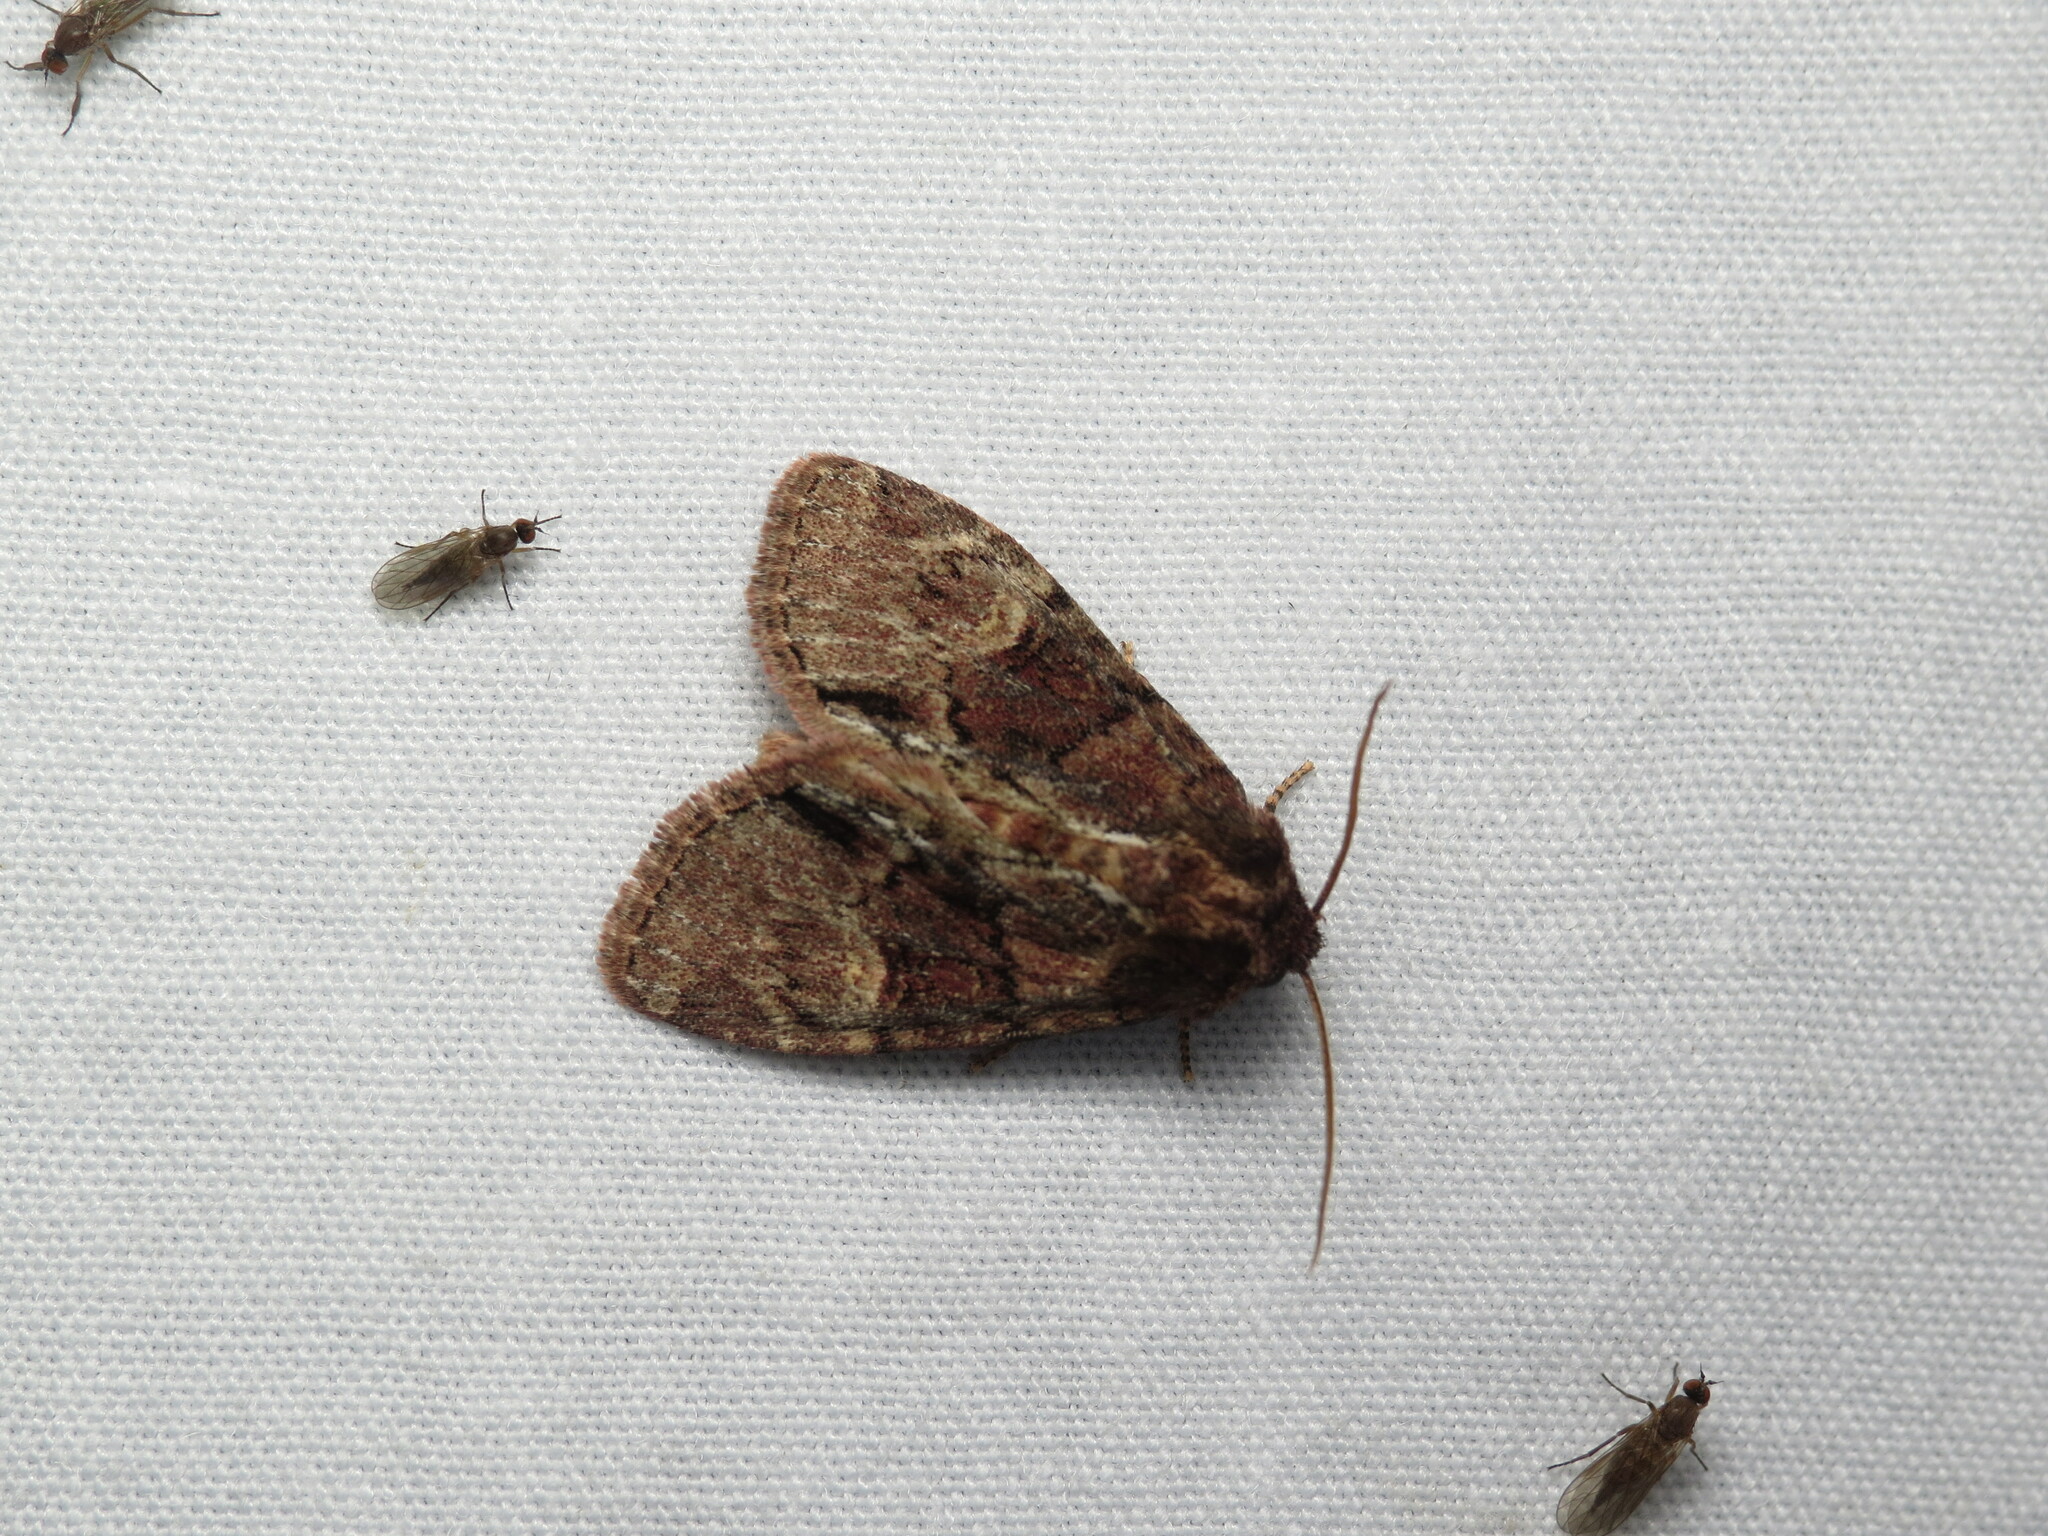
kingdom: Animalia
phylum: Arthropoda
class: Insecta
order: Lepidoptera
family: Noctuidae
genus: Phosphila
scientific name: Phosphila turbulenta
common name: Turbulent phosphila moth
